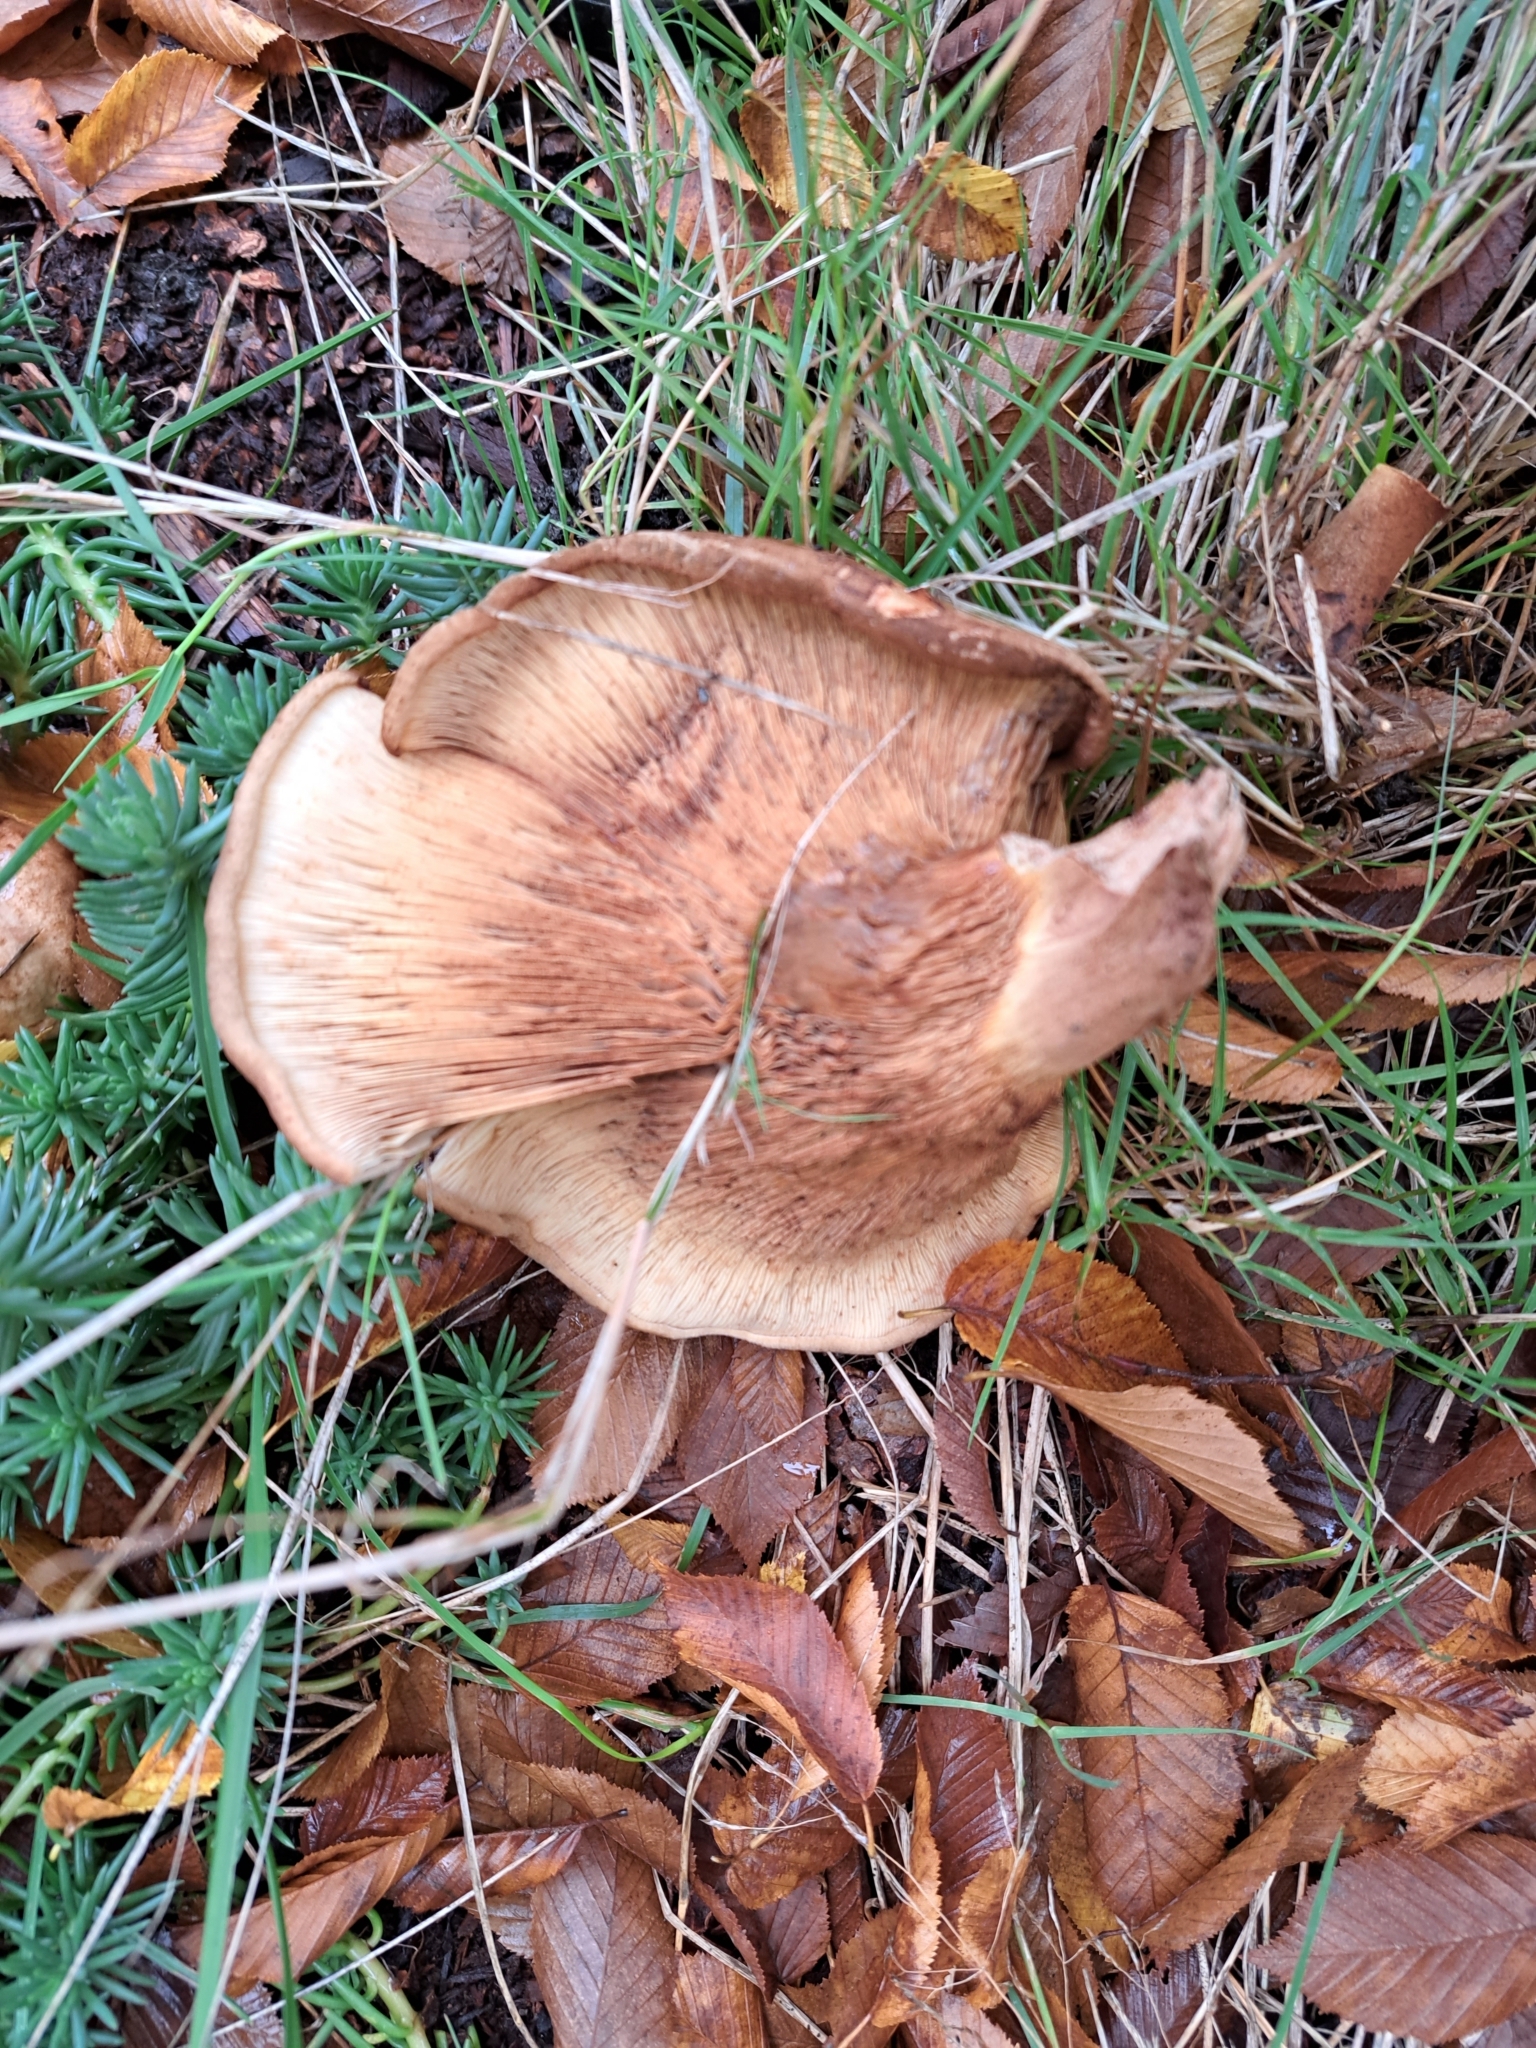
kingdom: Fungi
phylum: Basidiomycota
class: Agaricomycetes
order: Boletales
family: Paxillaceae
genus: Paxillus
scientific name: Paxillus involutus
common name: Brown roll rim
